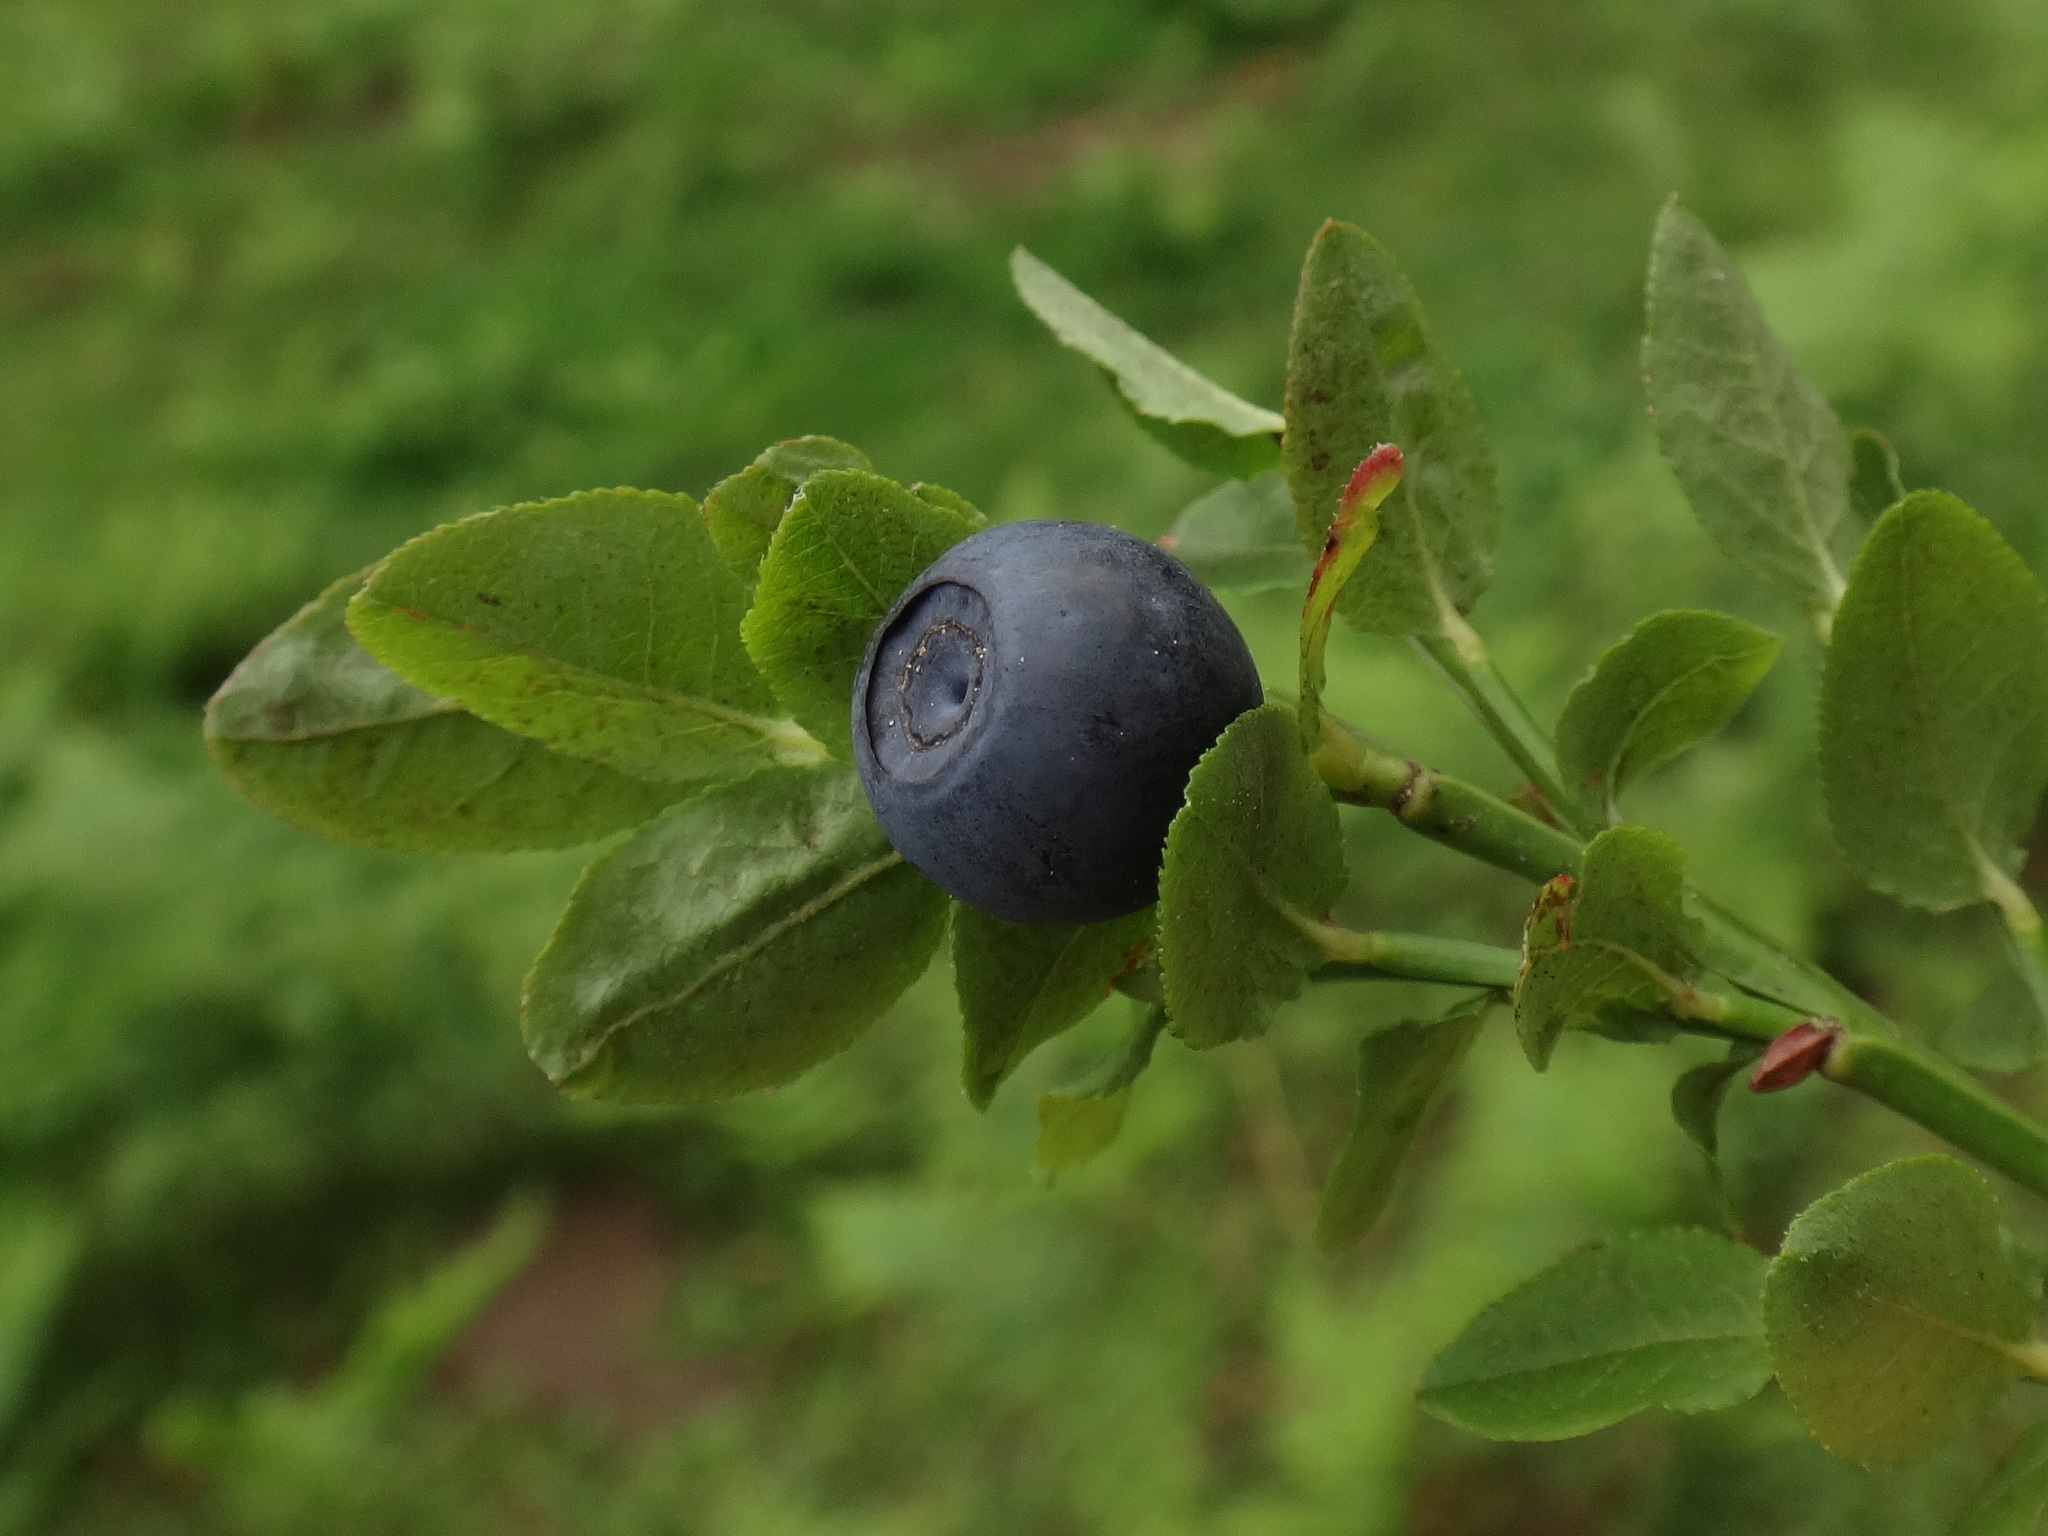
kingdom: Plantae
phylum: Tracheophyta
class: Magnoliopsida
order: Ericales
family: Ericaceae
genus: Vaccinium
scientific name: Vaccinium myrtillus
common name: Bilberry
